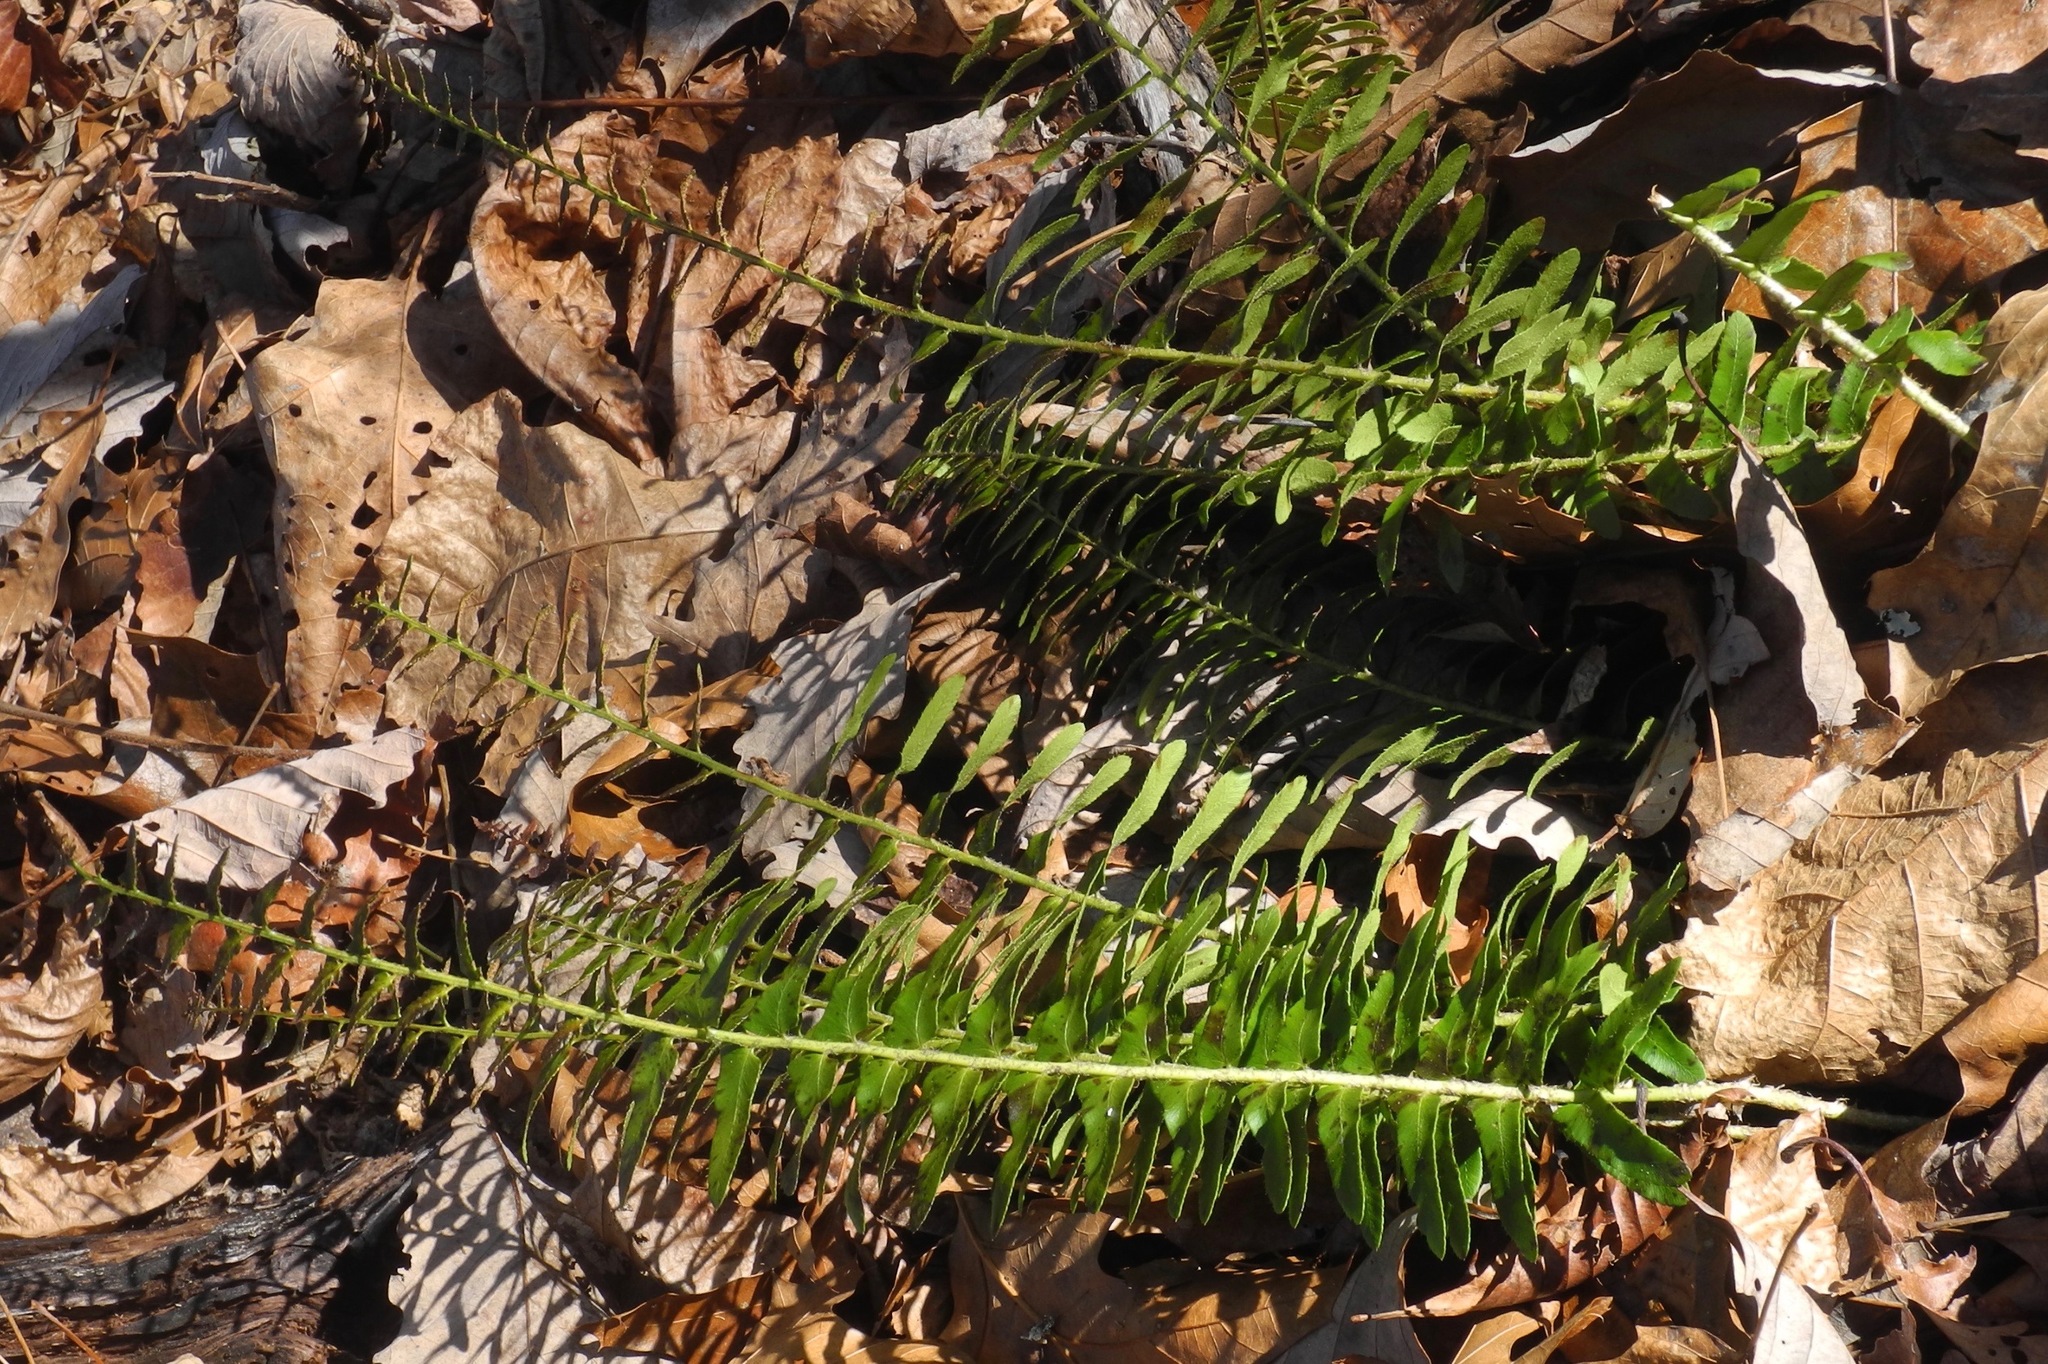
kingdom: Plantae
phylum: Tracheophyta
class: Polypodiopsida
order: Polypodiales
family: Dryopteridaceae
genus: Polystichum
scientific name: Polystichum acrostichoides
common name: Christmas fern
